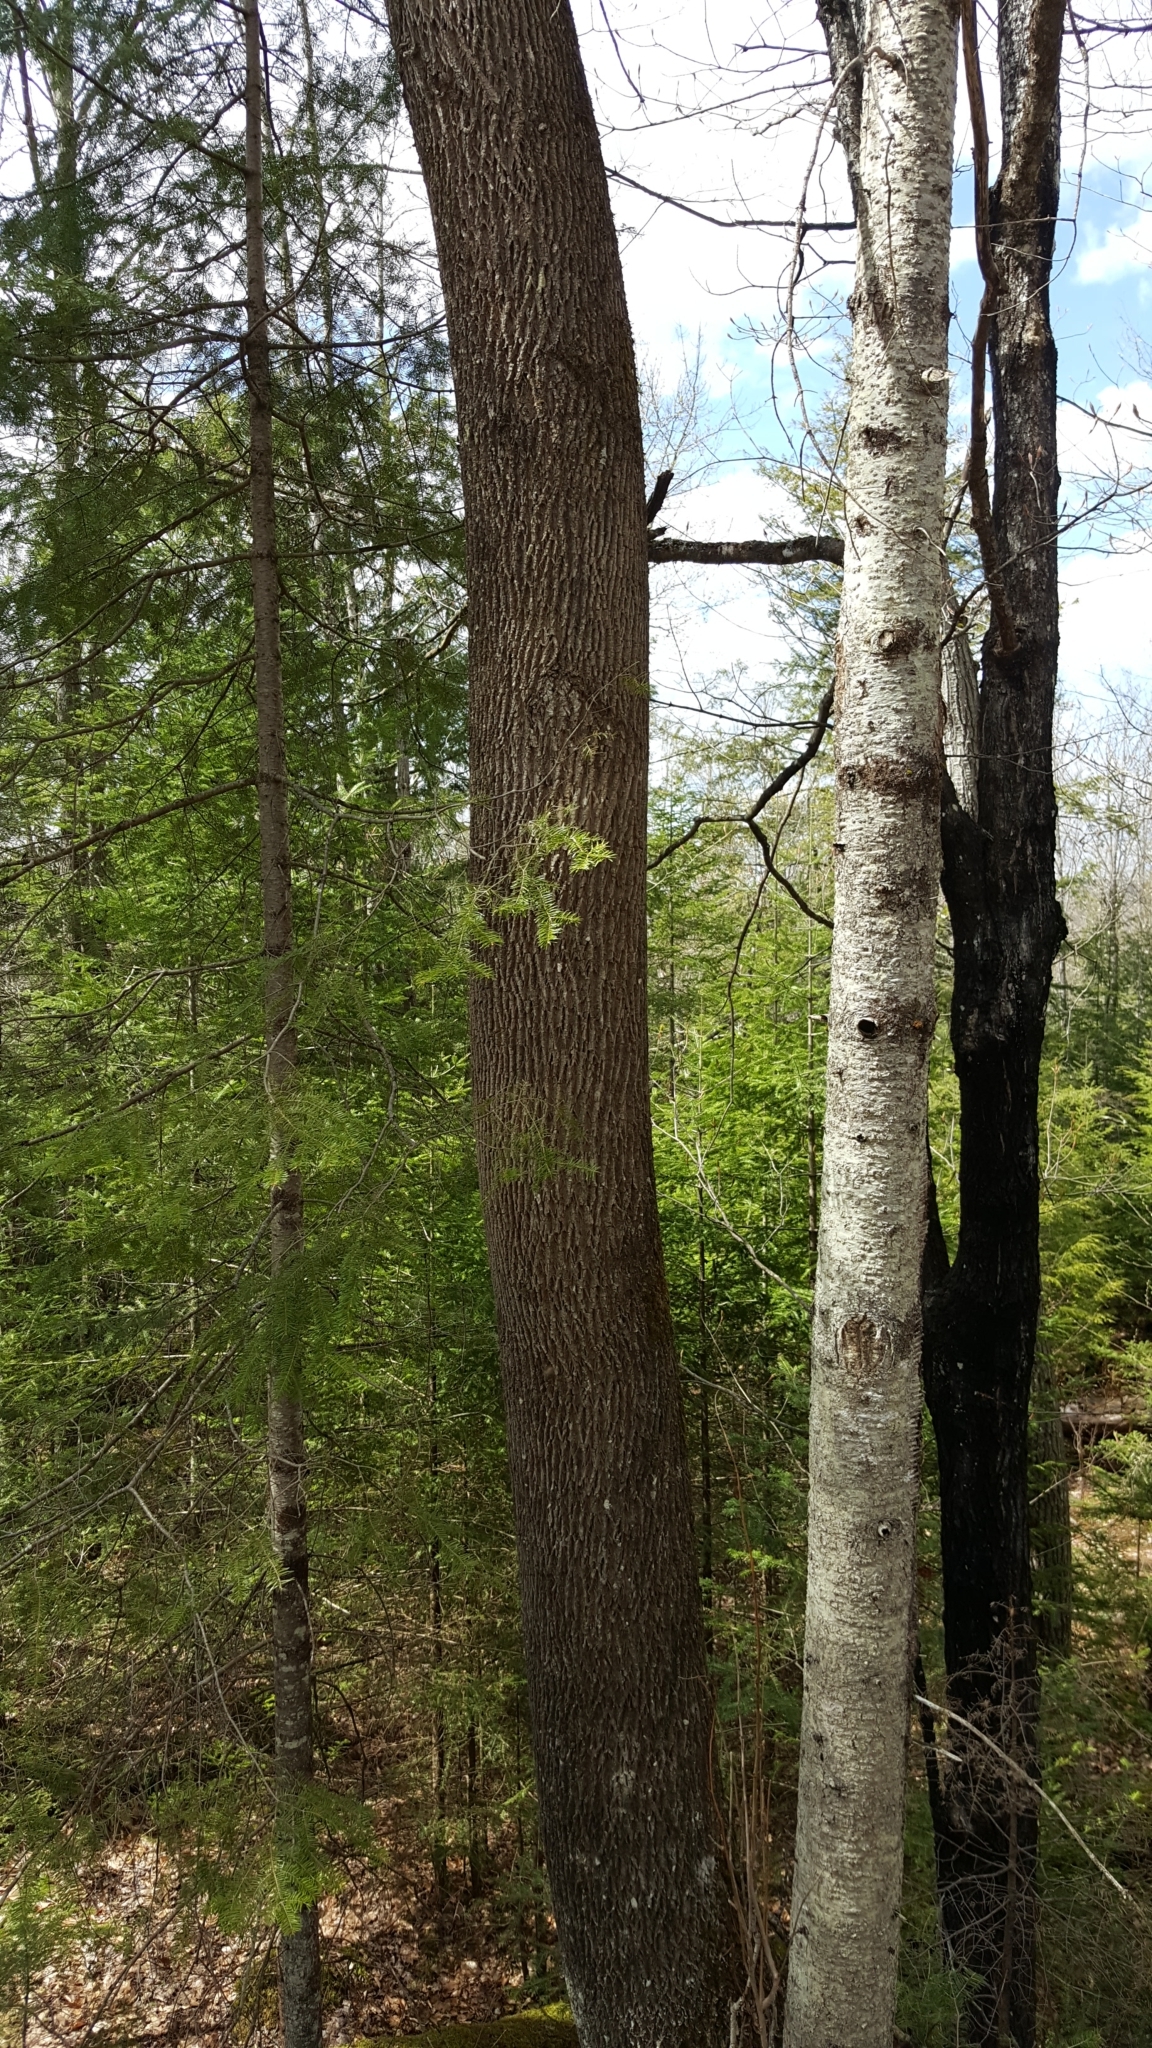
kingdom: Plantae
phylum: Tracheophyta
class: Magnoliopsida
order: Lamiales
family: Oleaceae
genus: Fraxinus
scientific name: Fraxinus americana
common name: White ash
